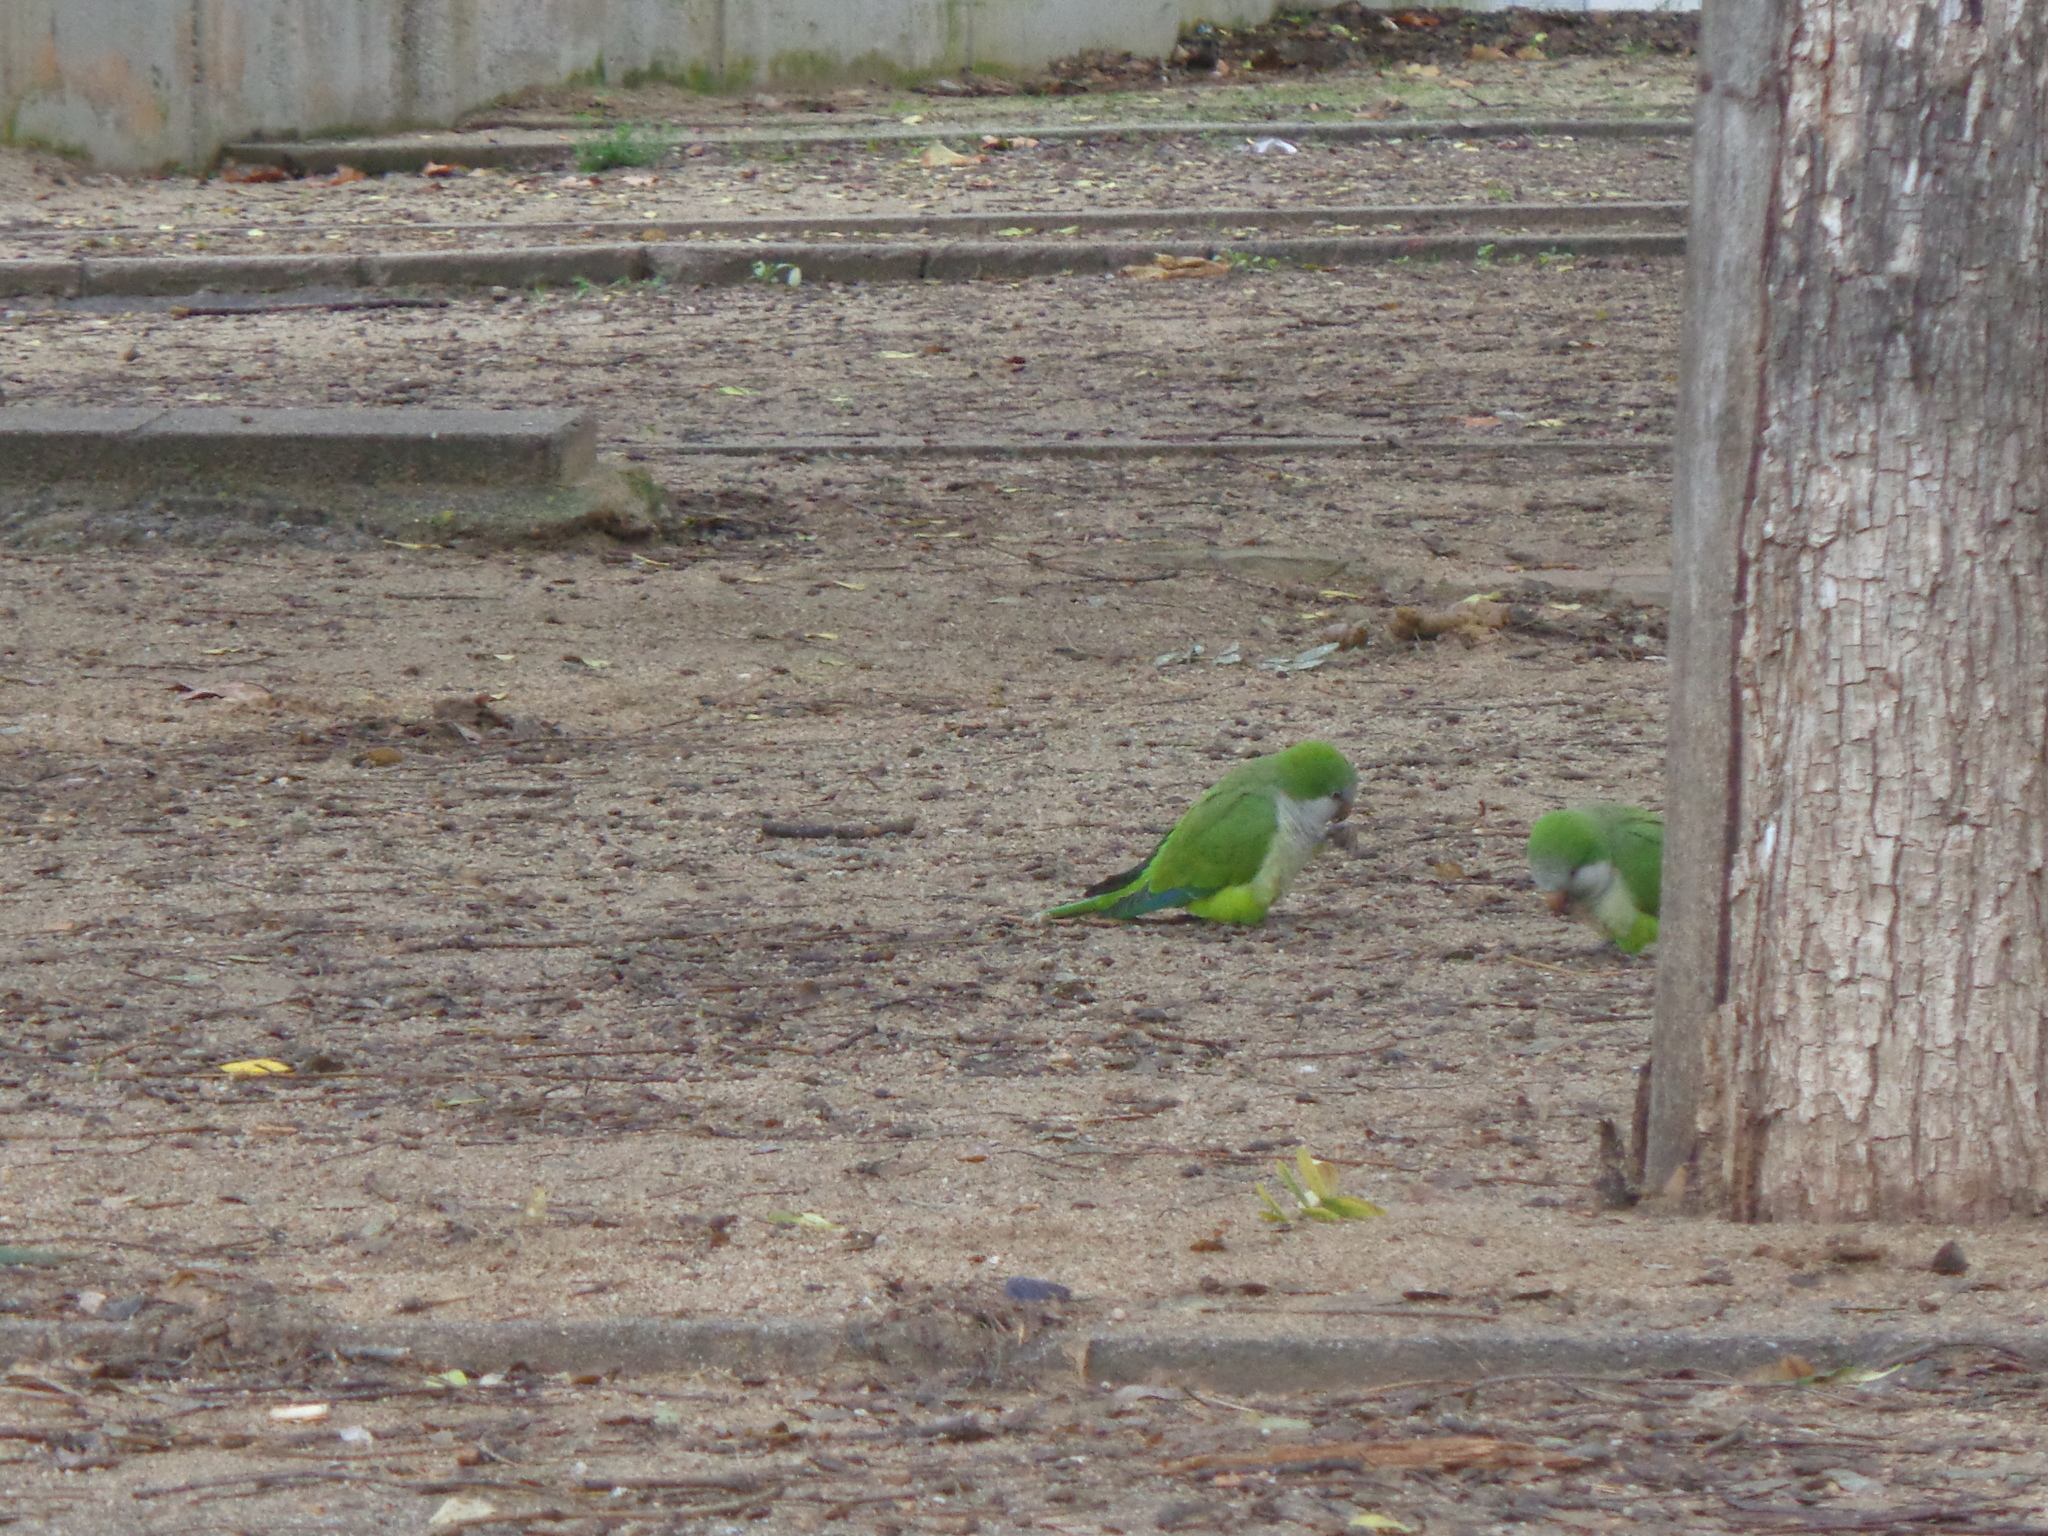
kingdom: Animalia
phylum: Chordata
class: Aves
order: Psittaciformes
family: Psittacidae
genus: Myiopsitta
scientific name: Myiopsitta monachus
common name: Monk parakeet
